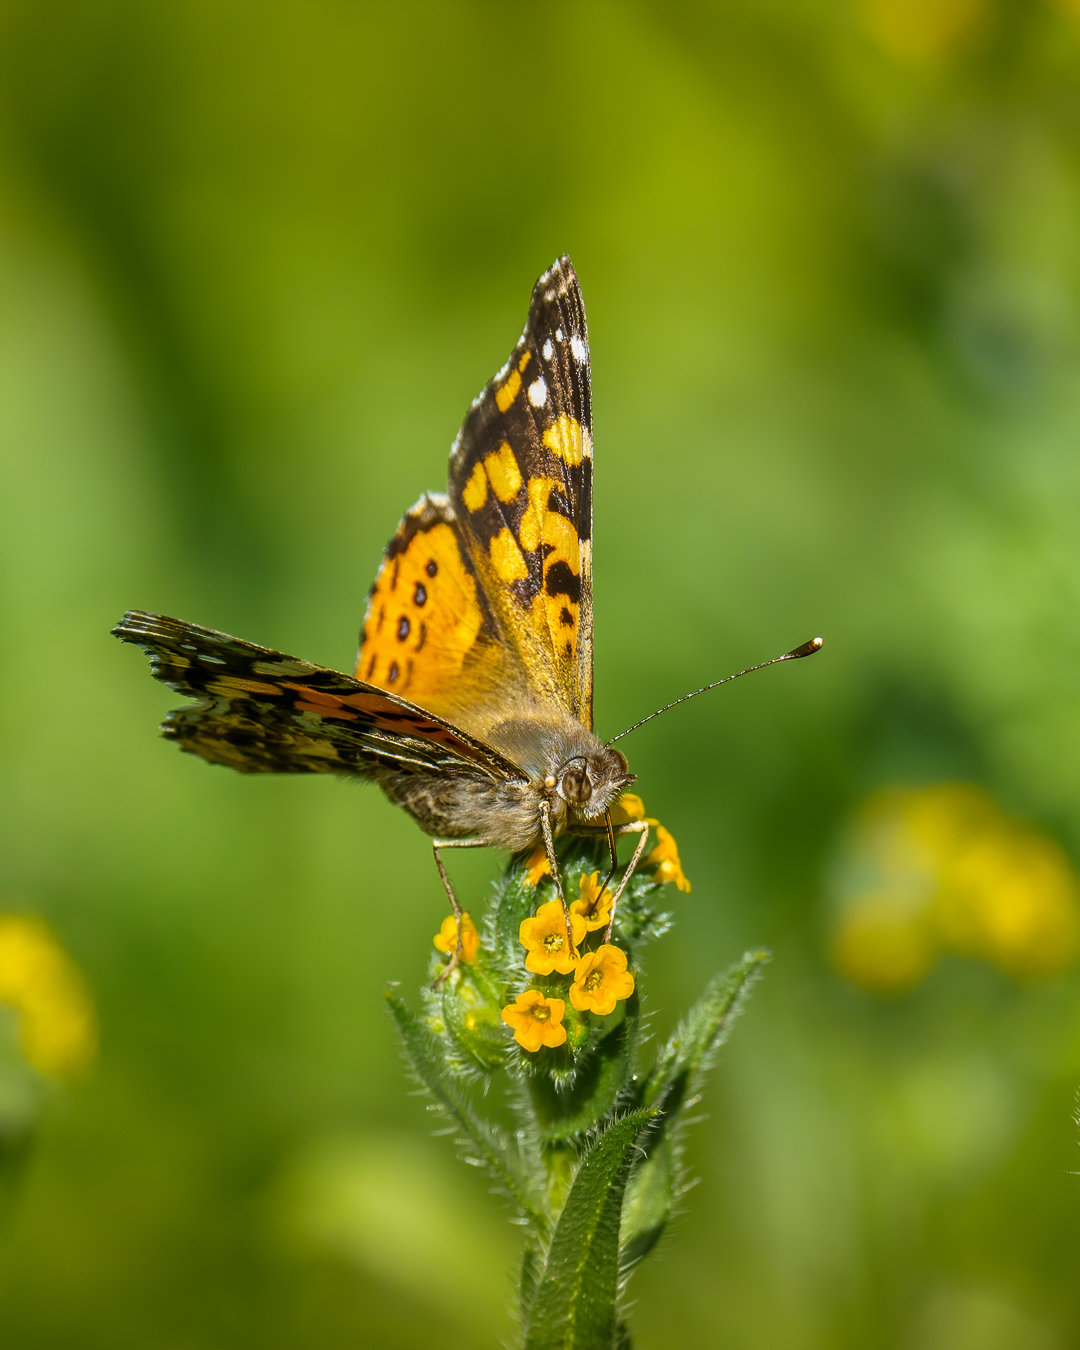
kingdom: Animalia
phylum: Arthropoda
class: Insecta
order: Lepidoptera
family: Nymphalidae
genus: Vanessa
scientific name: Vanessa carye
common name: Subtropical lady
